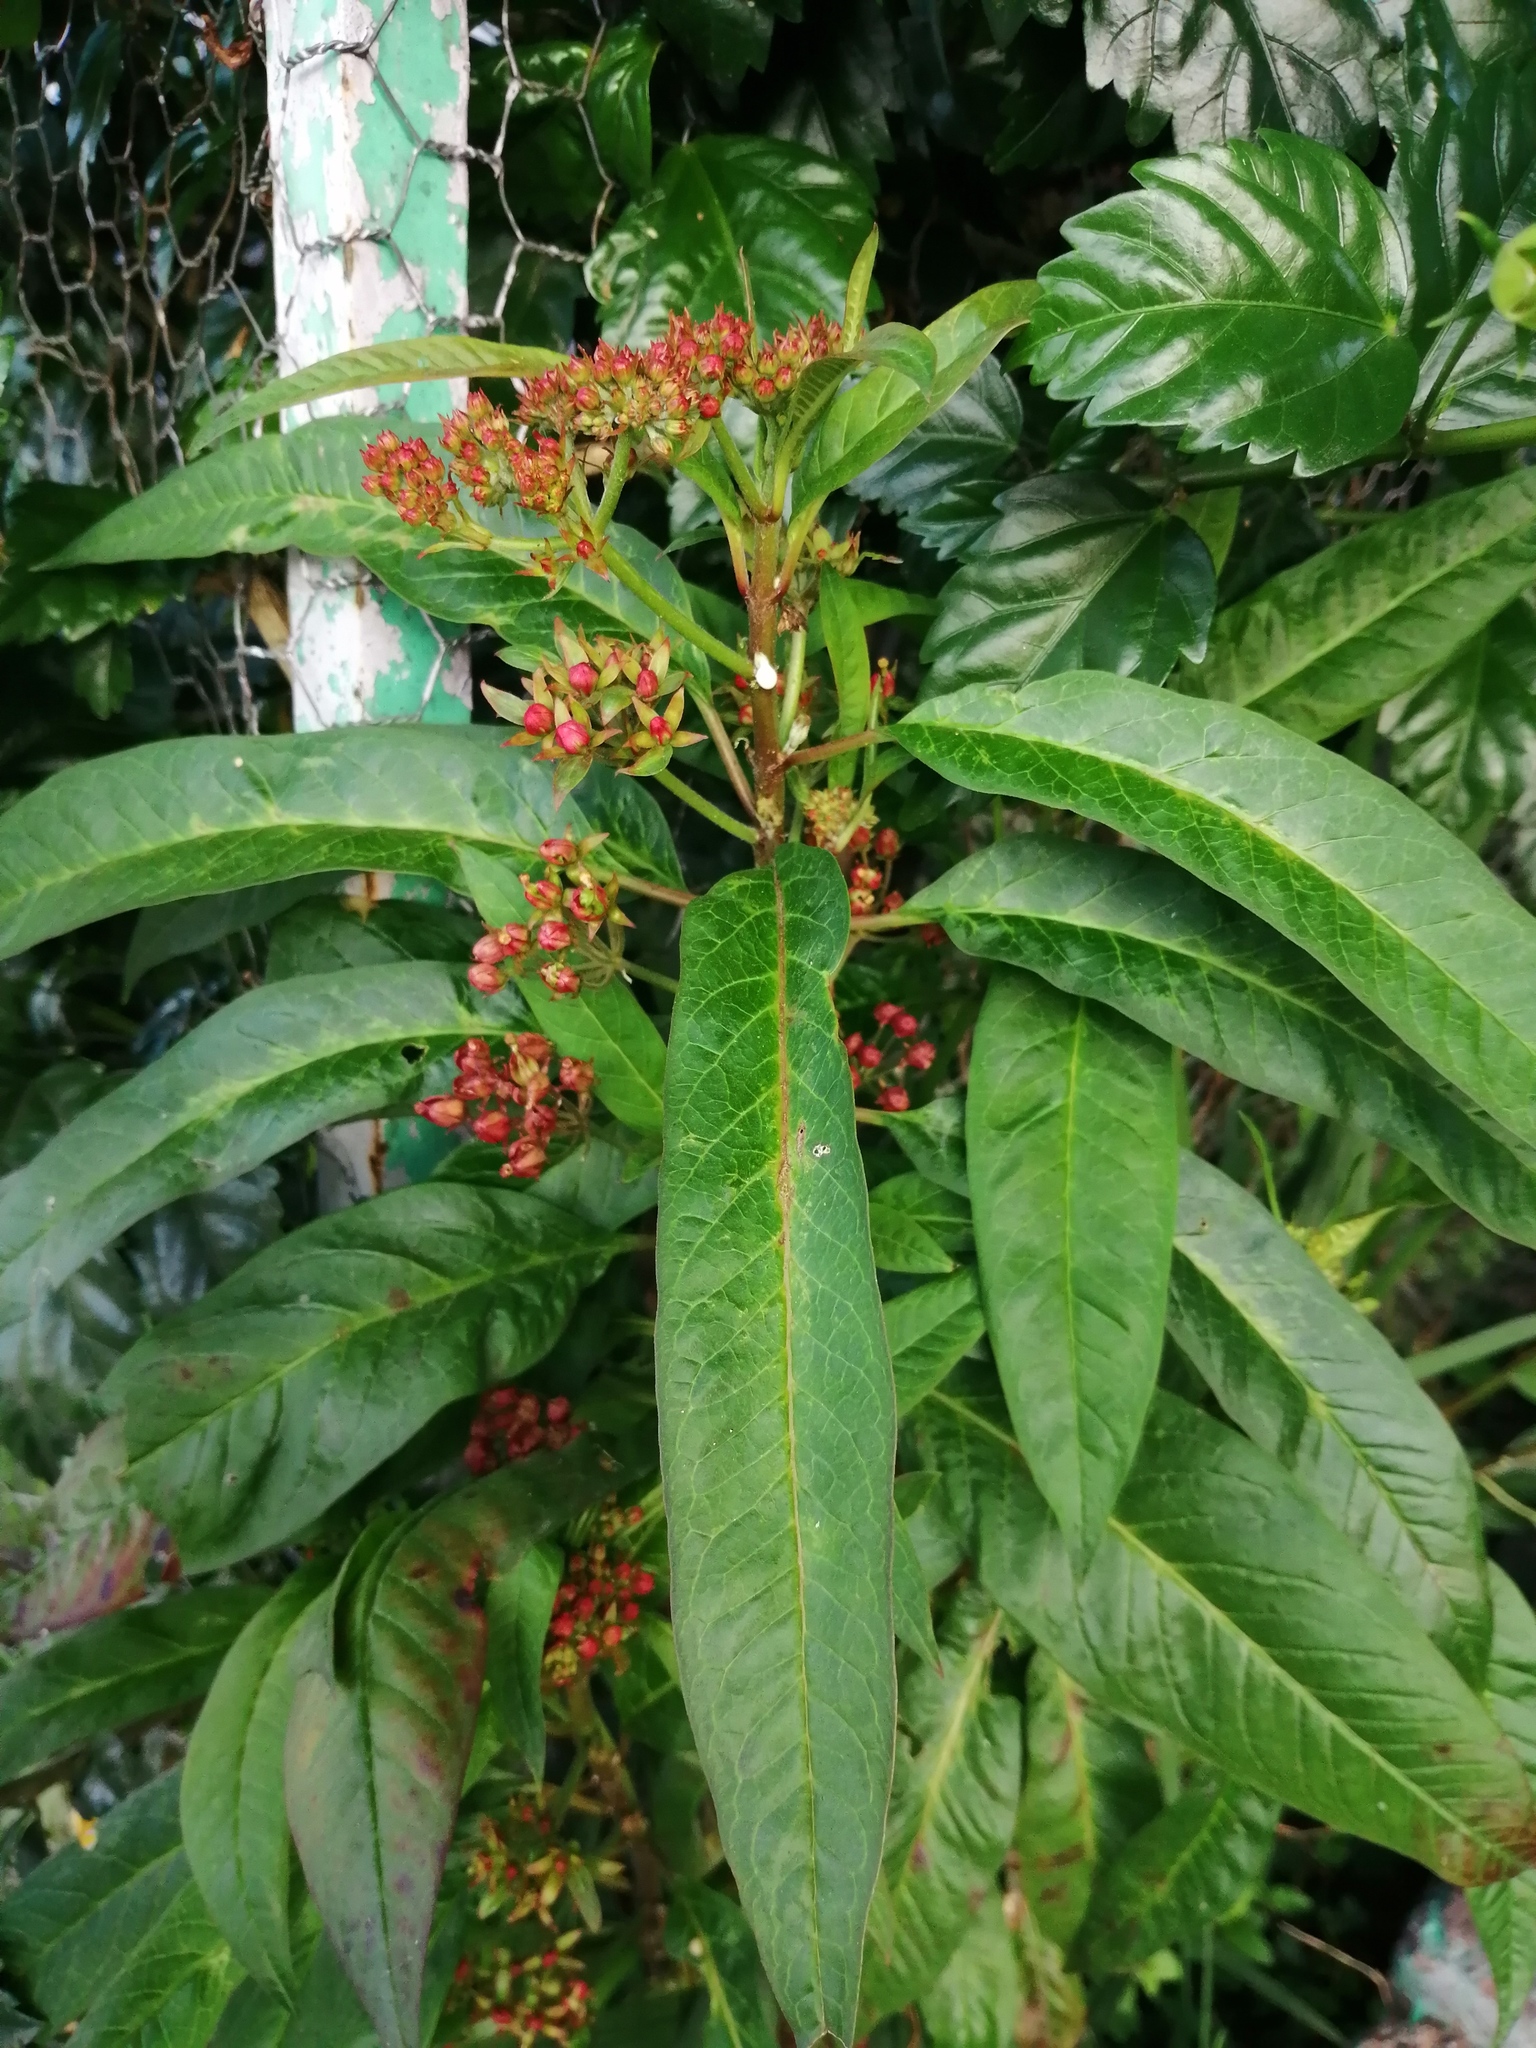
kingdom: Plantae
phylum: Tracheophyta
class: Magnoliopsida
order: Gentianales
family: Apocynaceae
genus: Asclepias
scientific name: Asclepias curassavica
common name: Bloodflower
